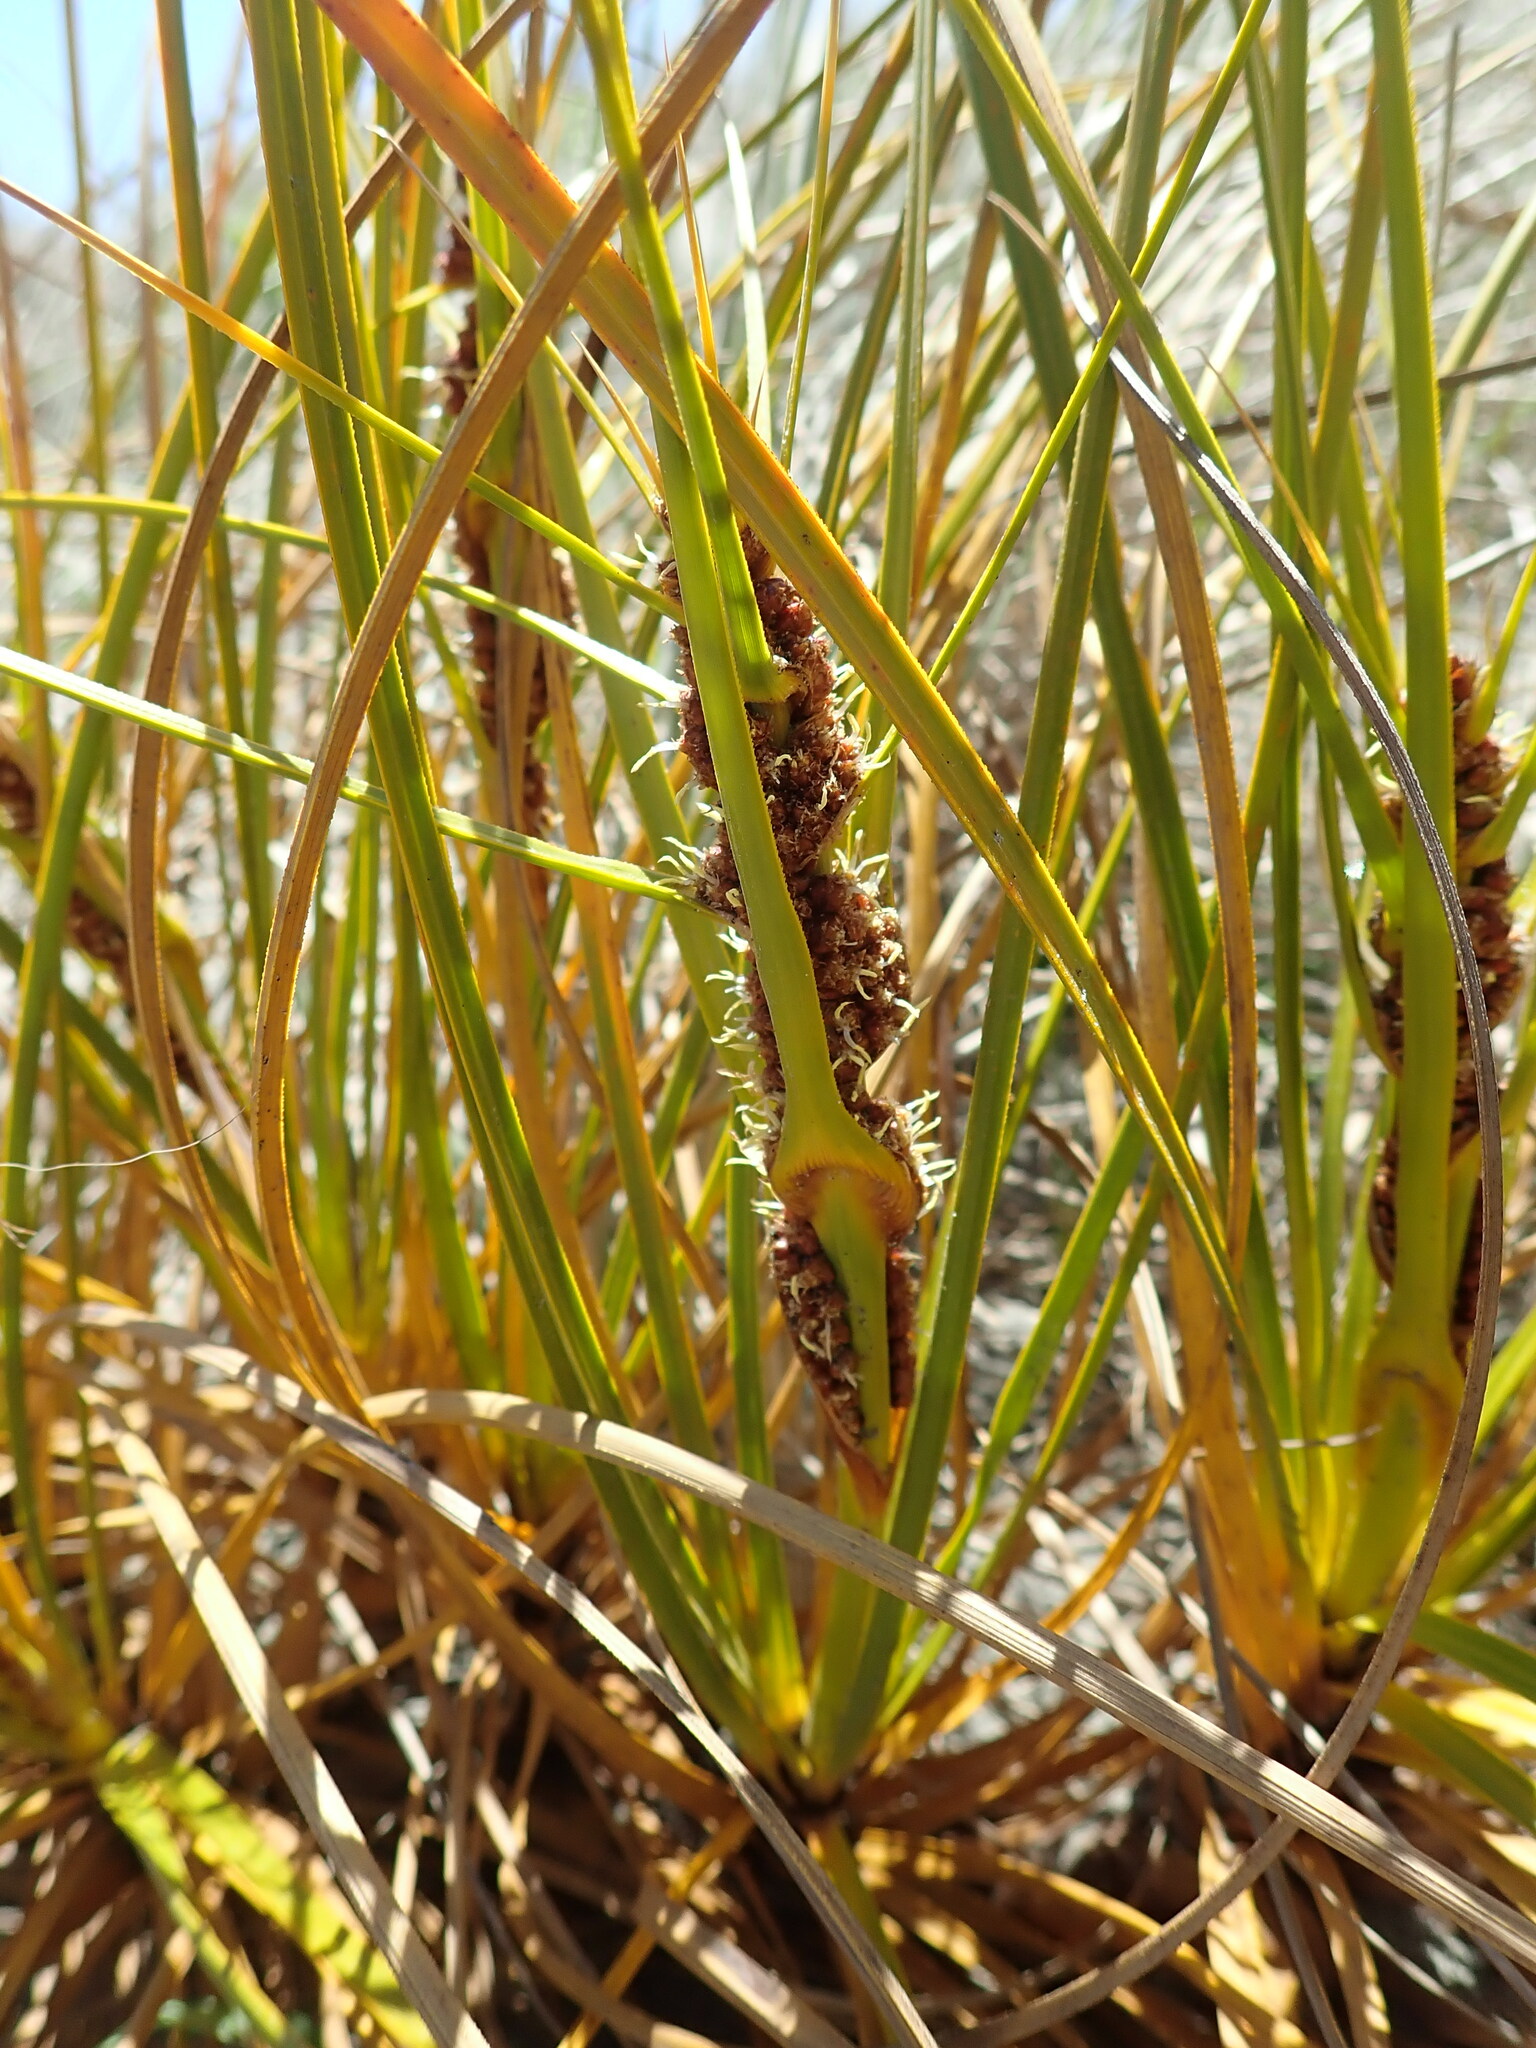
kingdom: Plantae
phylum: Tracheophyta
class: Liliopsida
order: Poales
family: Cyperaceae
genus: Ficinia
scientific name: Ficinia spiralis
